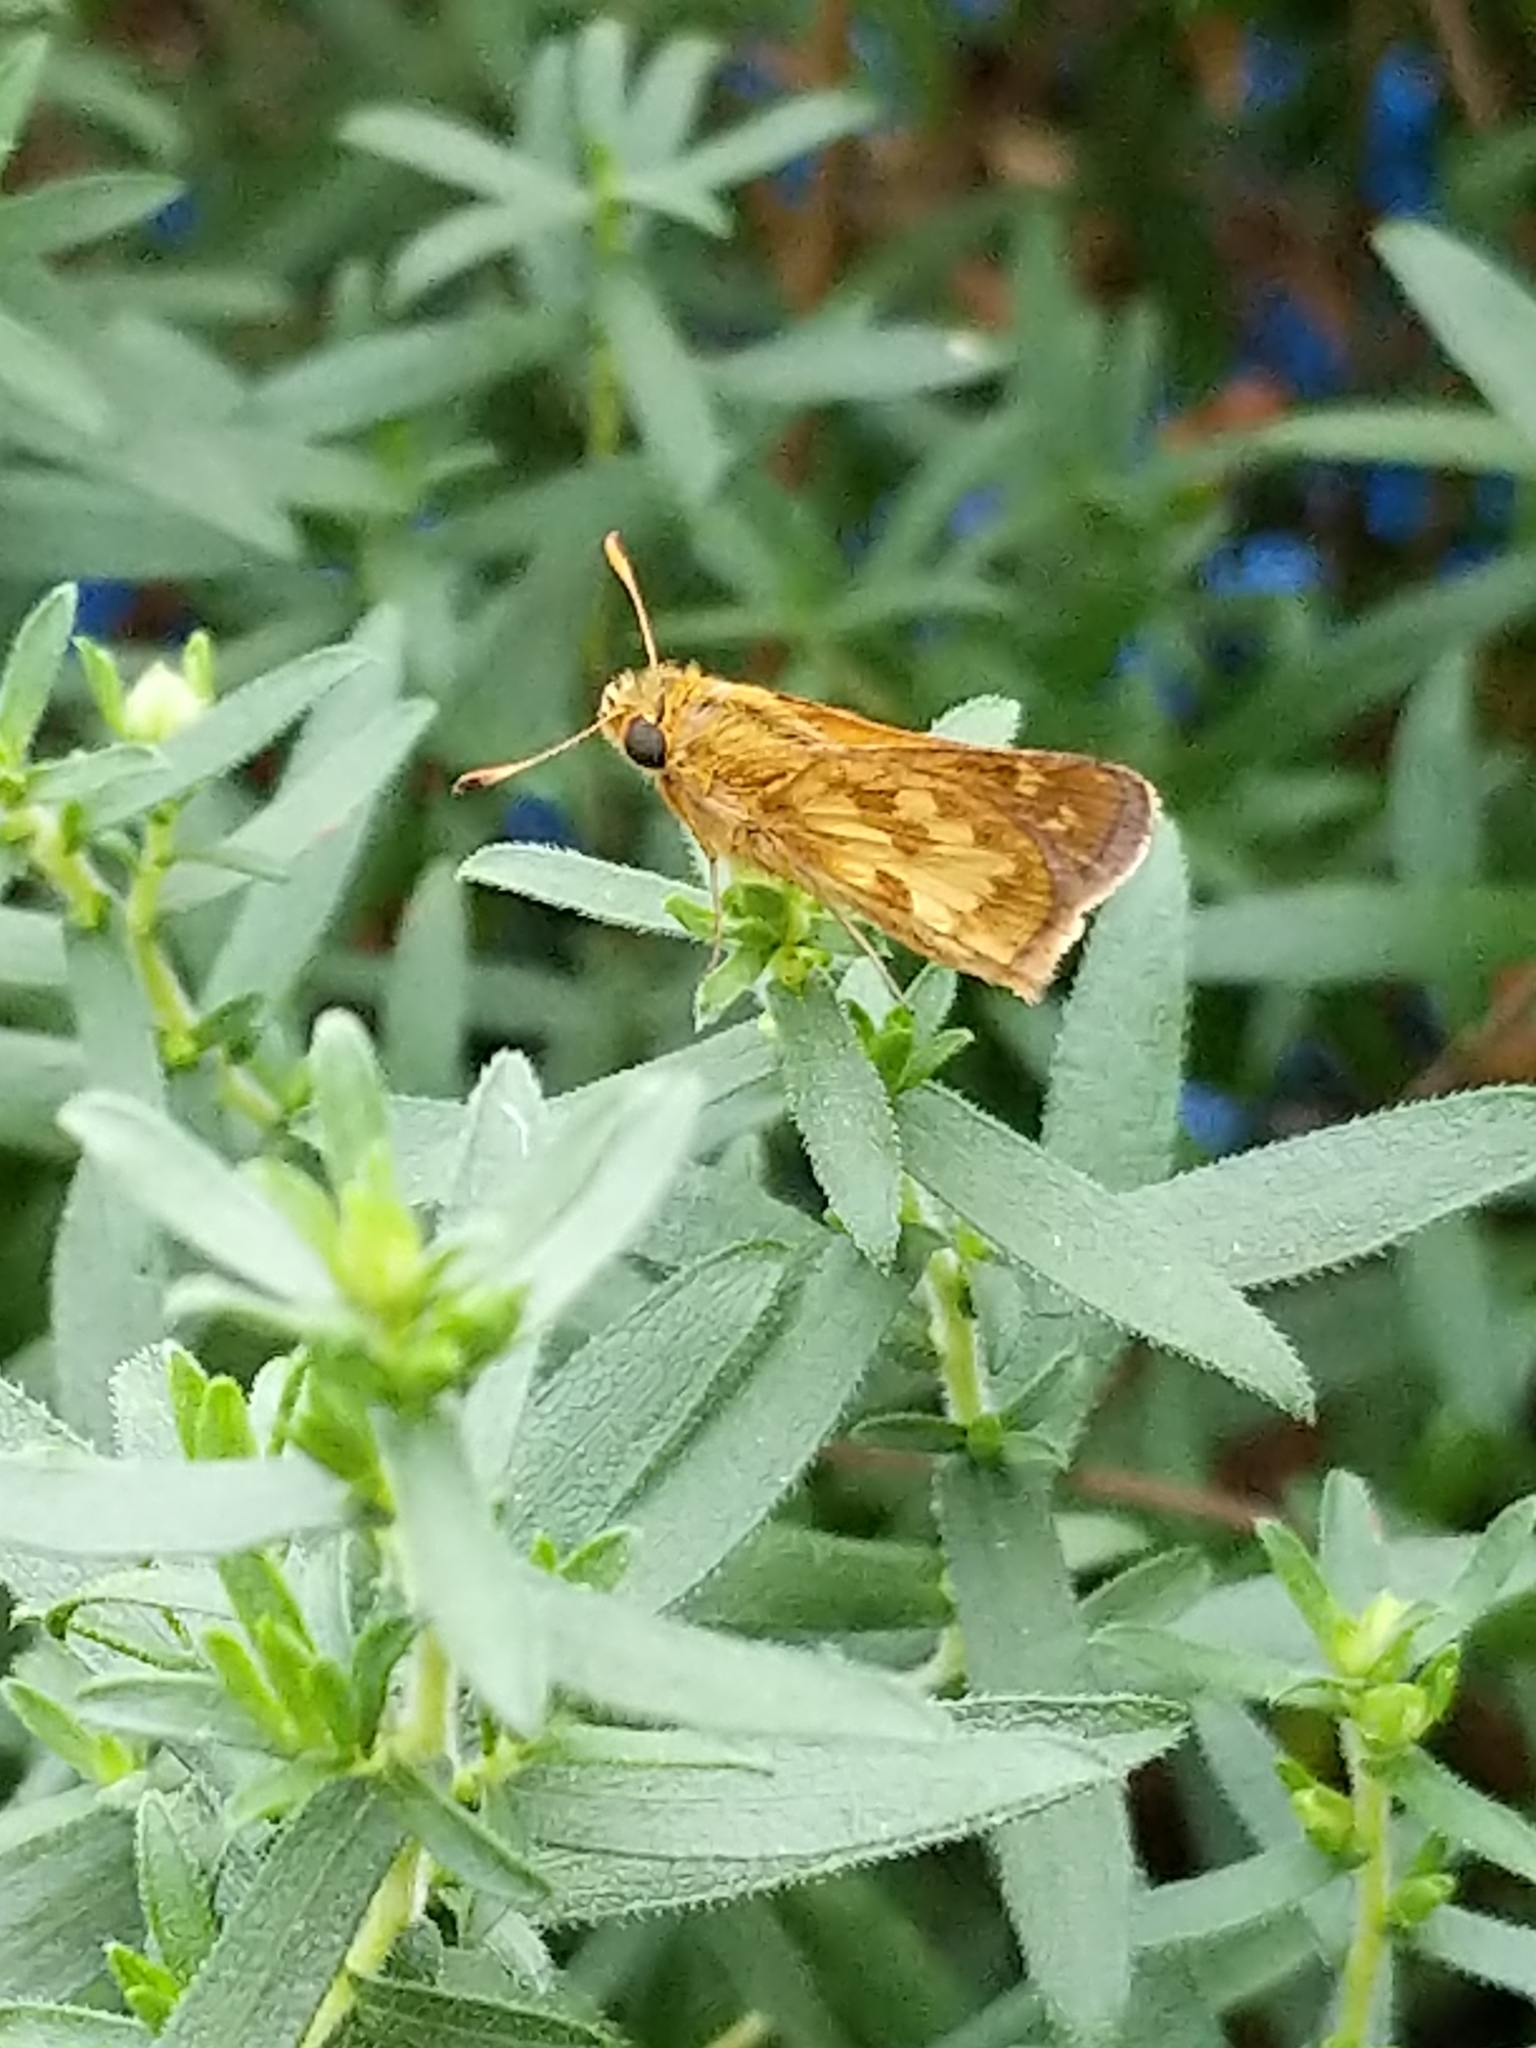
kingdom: Animalia
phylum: Arthropoda
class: Insecta
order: Lepidoptera
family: Hesperiidae
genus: Polites
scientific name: Polites coras
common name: Peck's skipper
